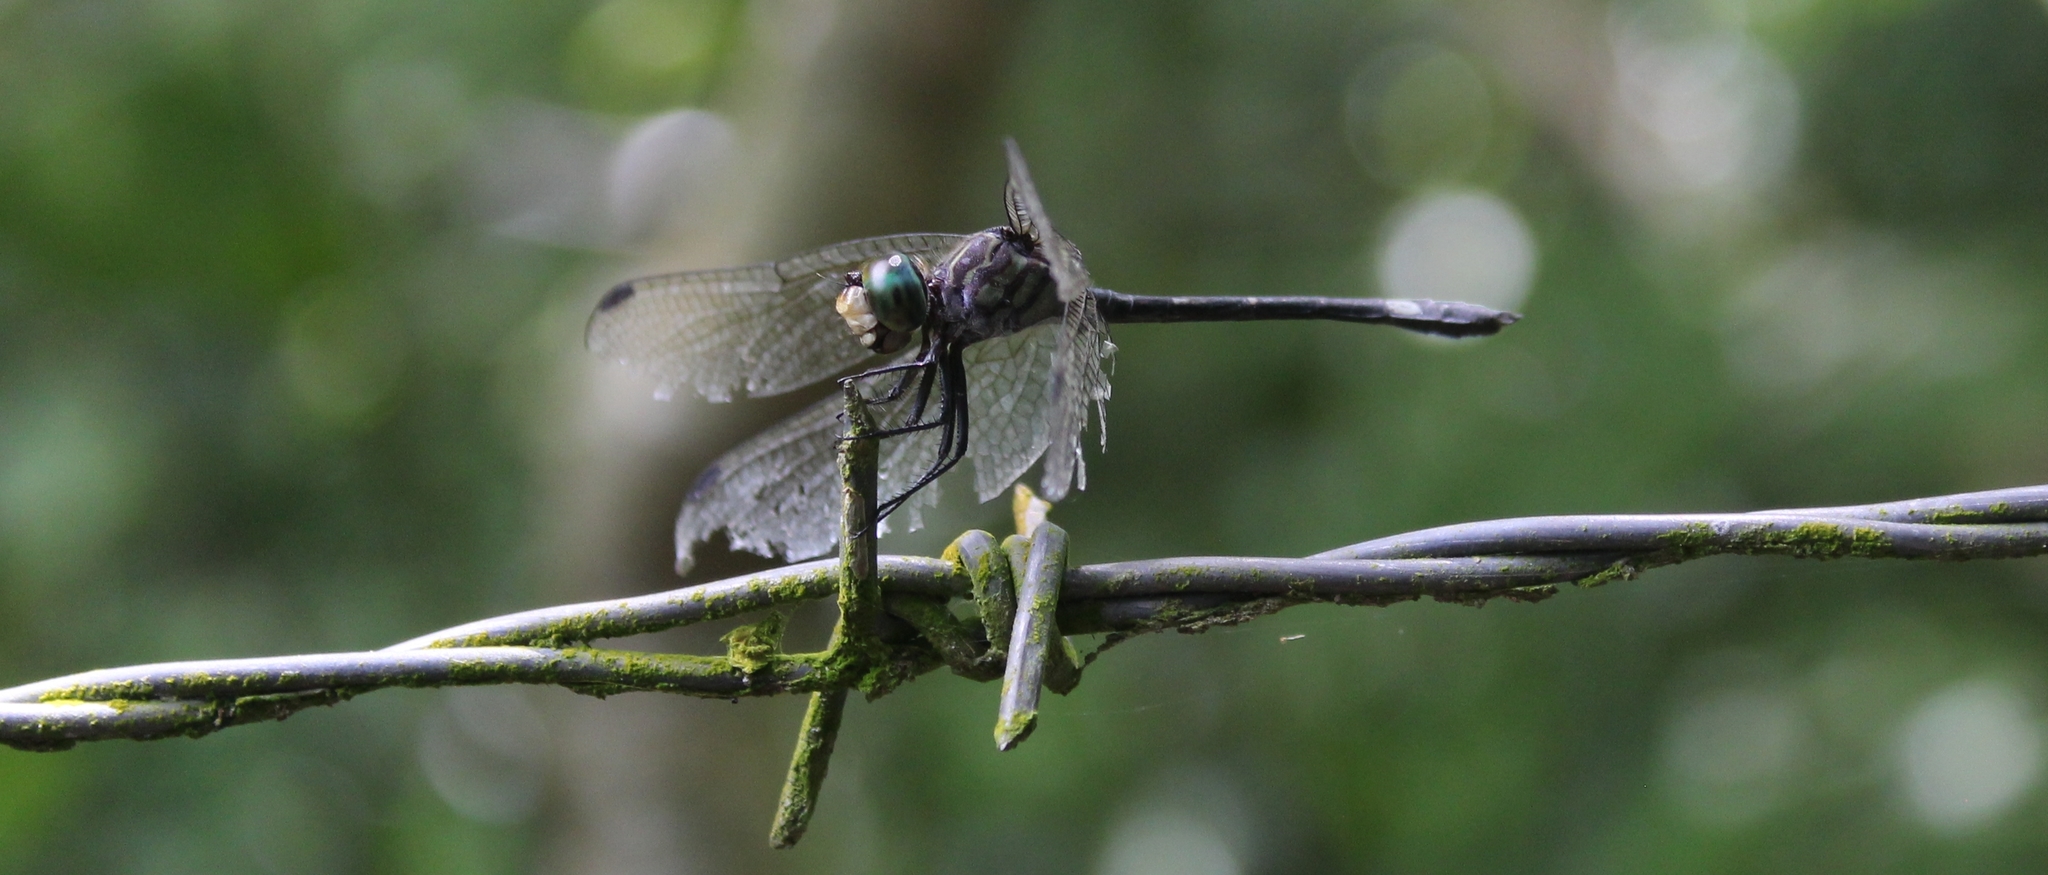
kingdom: Animalia
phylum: Arthropoda
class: Insecta
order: Odonata
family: Libellulidae
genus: Micrathyria
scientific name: Micrathyria didyma
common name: Three-striped dasher
